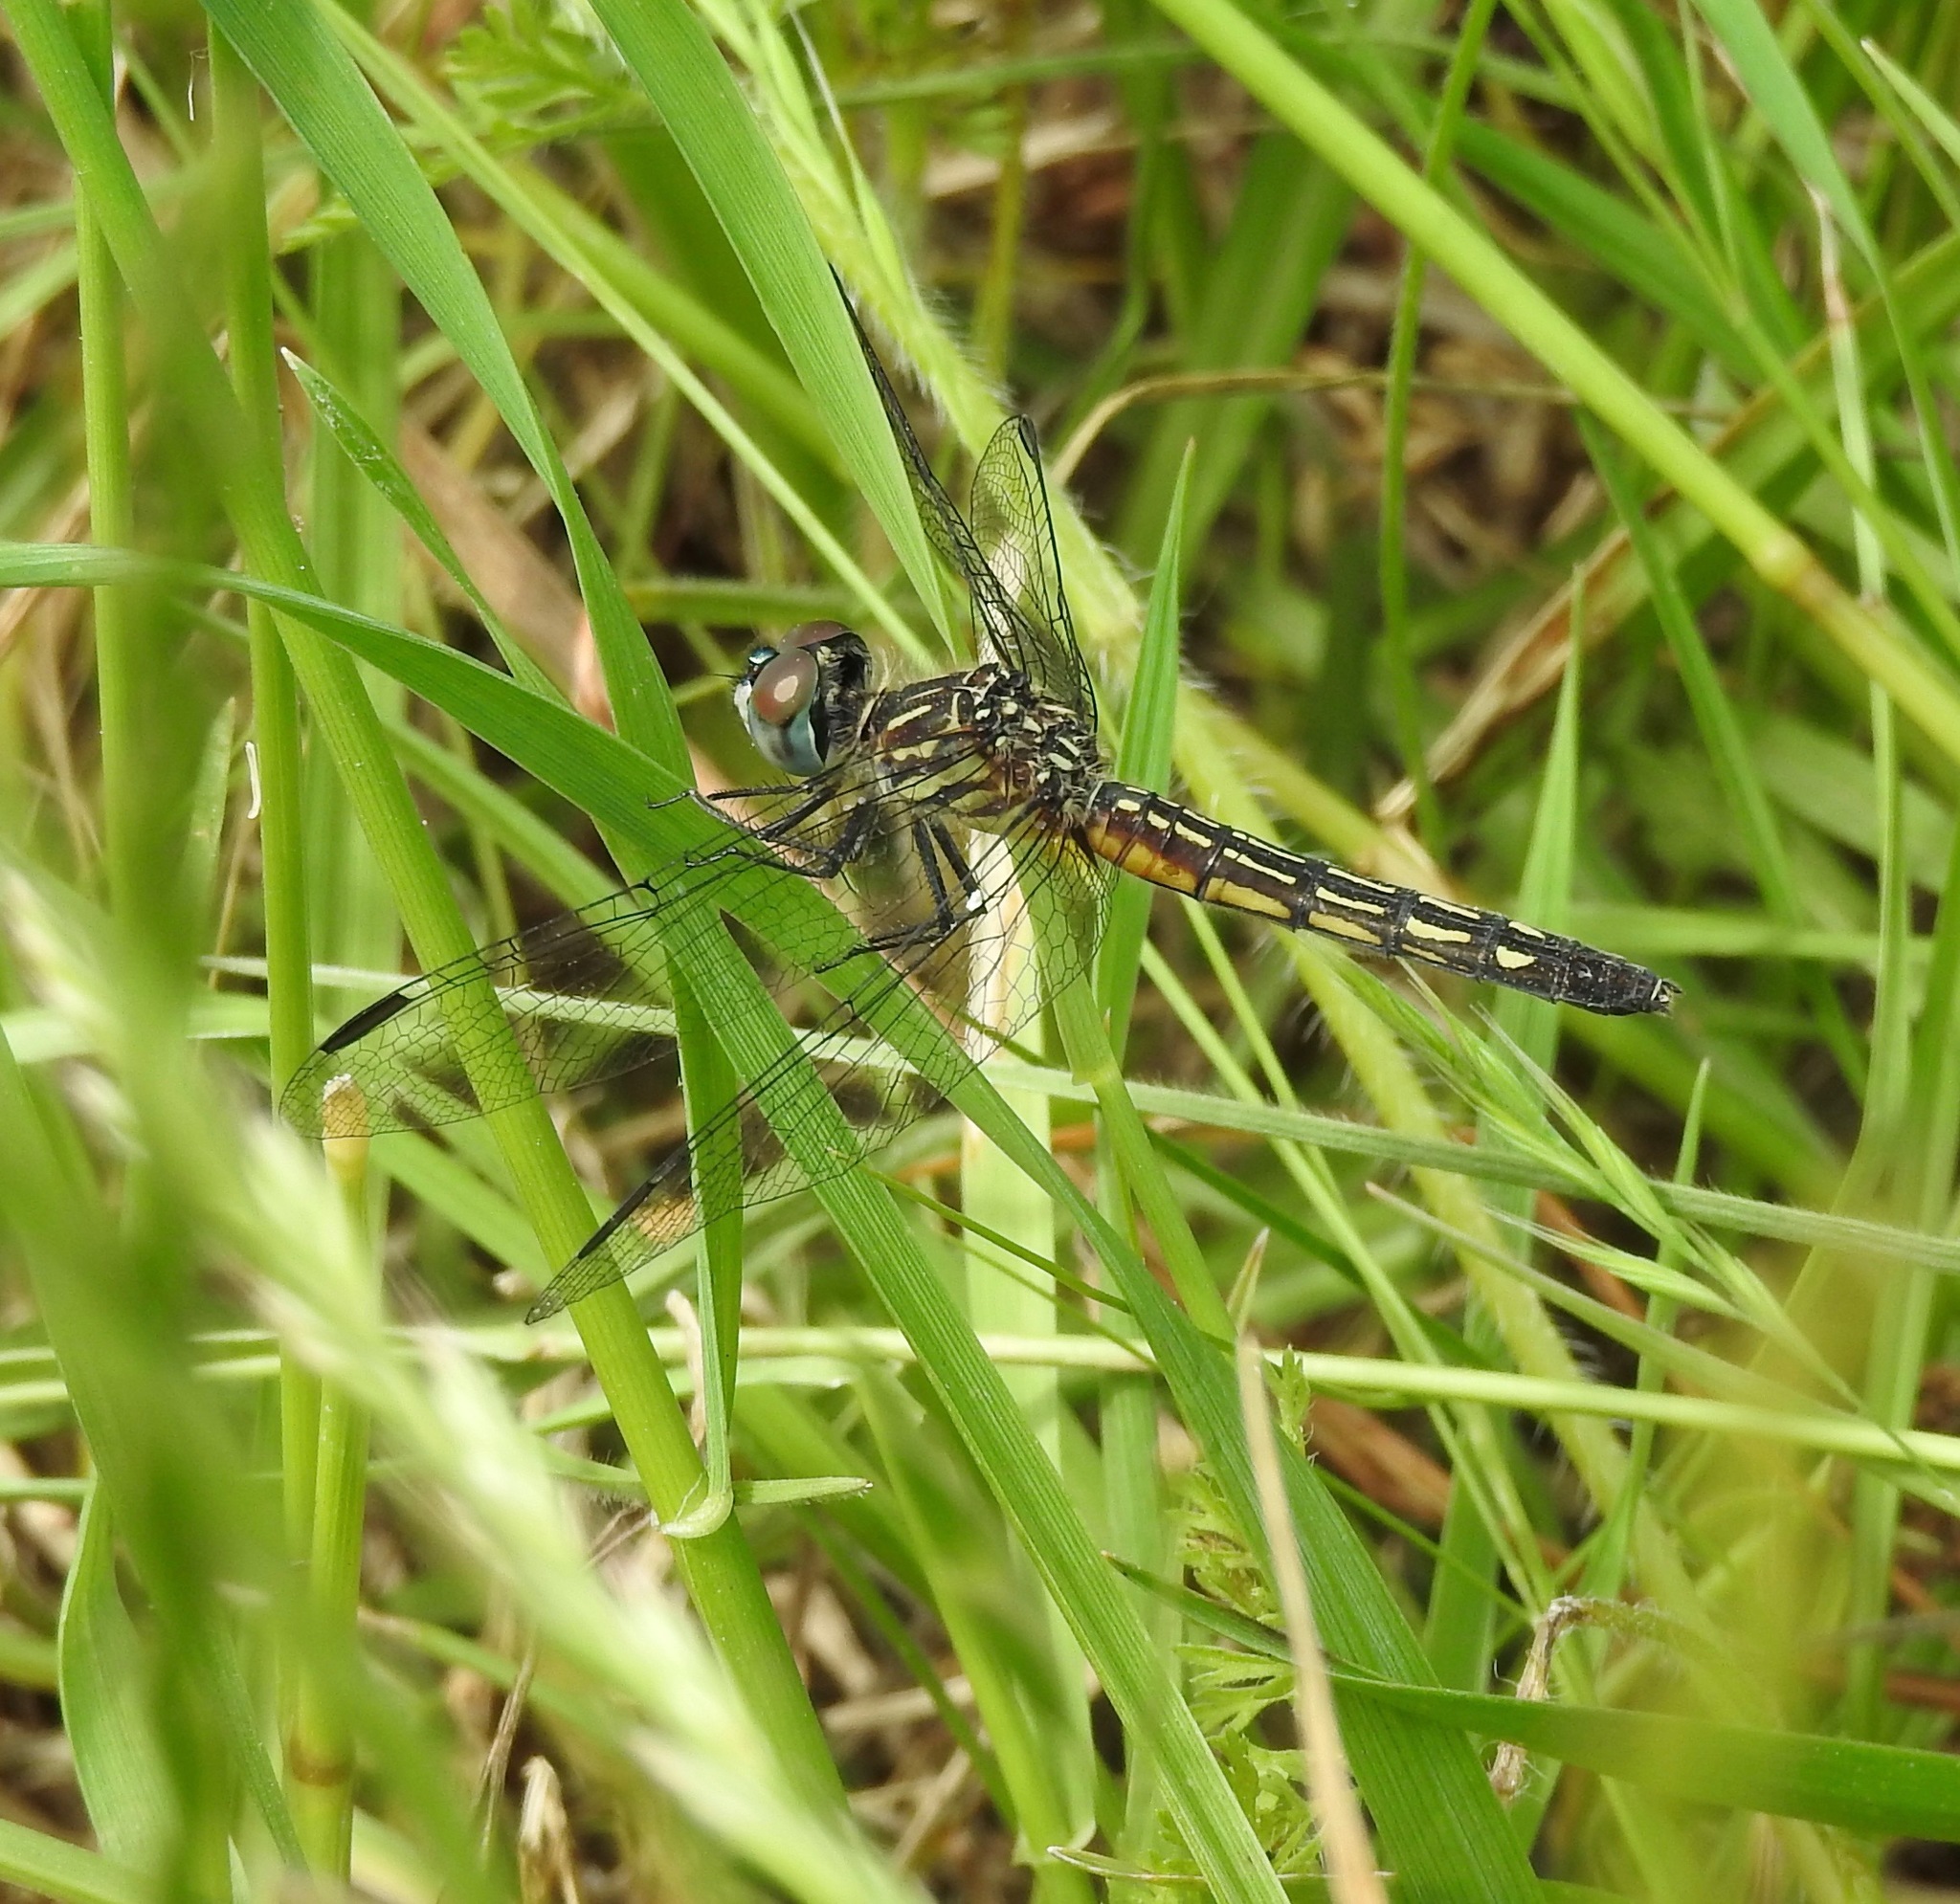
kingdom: Animalia
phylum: Arthropoda
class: Insecta
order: Odonata
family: Libellulidae
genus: Pachydiplax
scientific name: Pachydiplax longipennis
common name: Blue dasher
